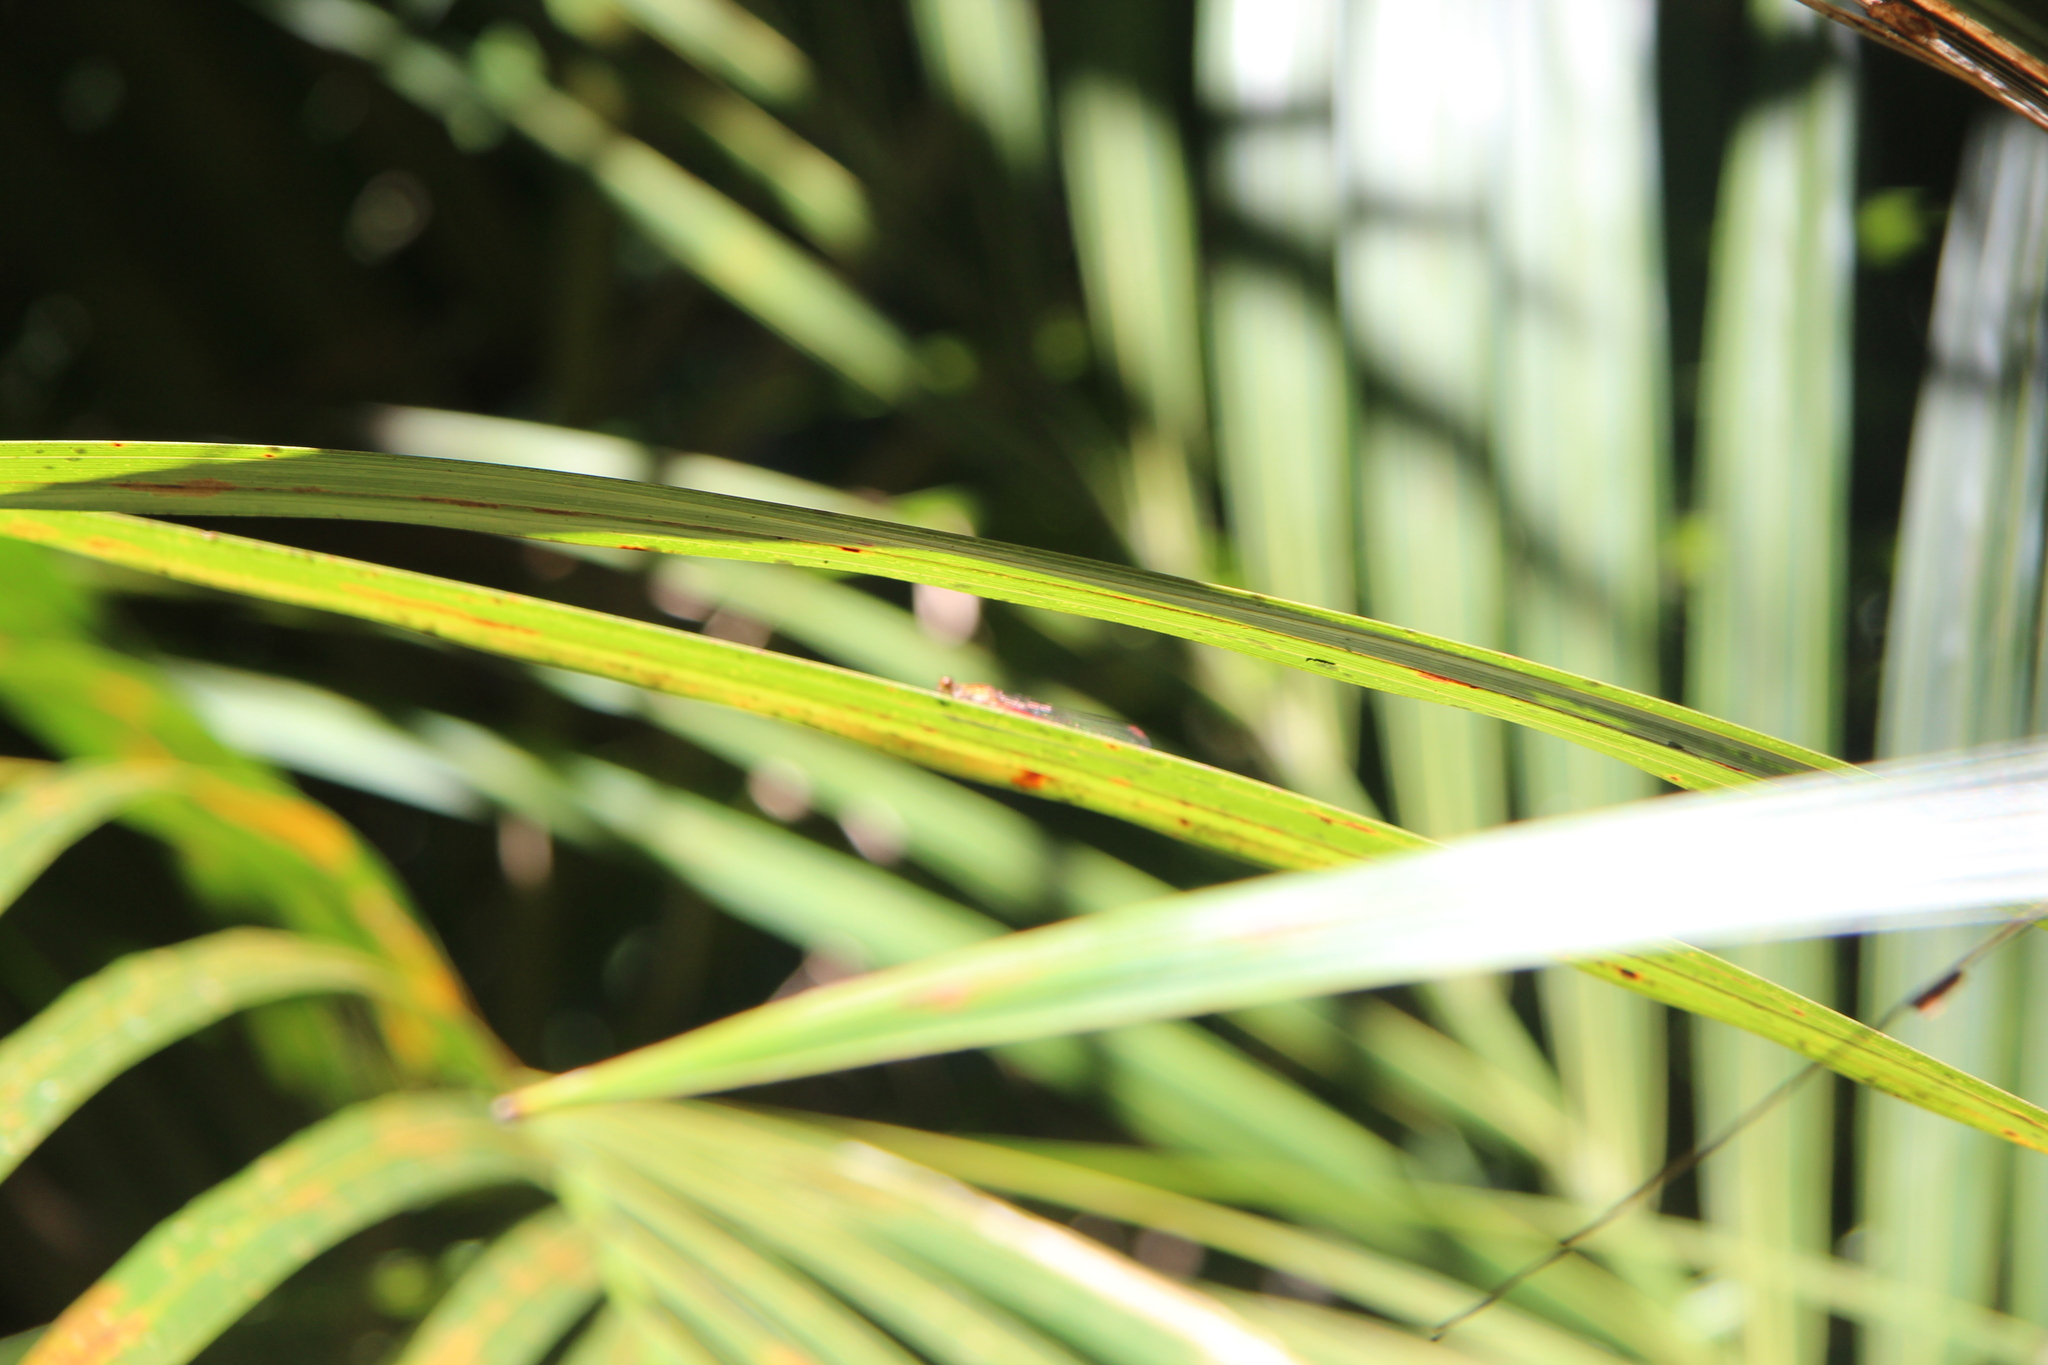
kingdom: Animalia
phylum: Arthropoda
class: Insecta
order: Odonata
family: Coenagrionidae
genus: Xanthocnemis
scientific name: Xanthocnemis zealandica
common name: Common redcoat damselfly
